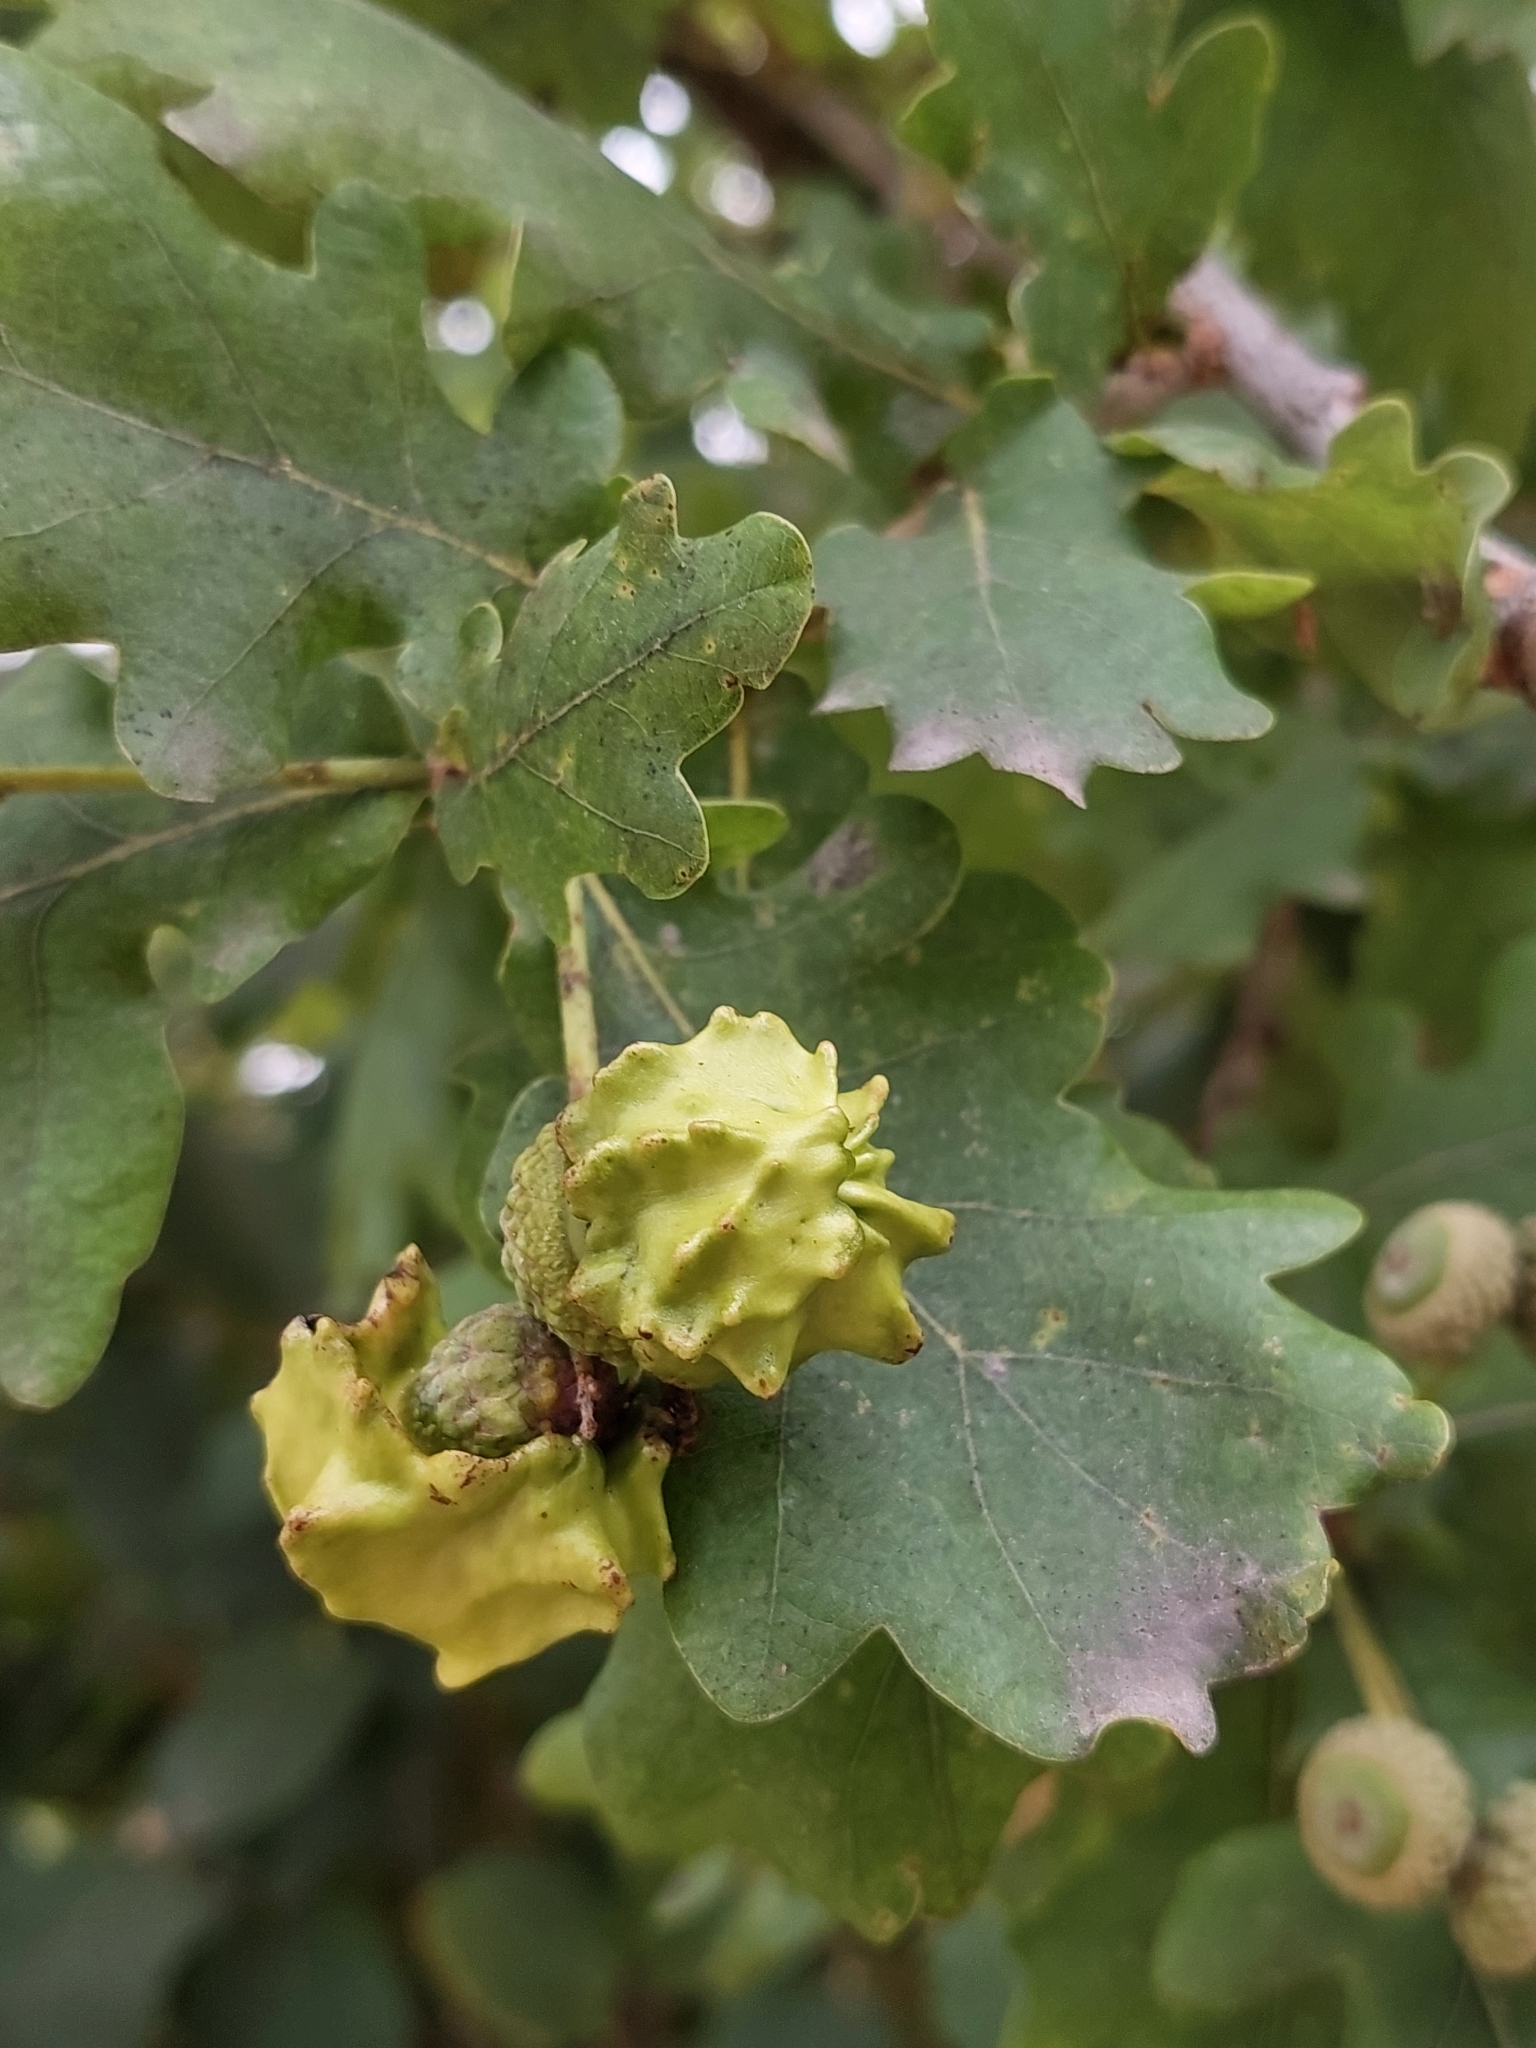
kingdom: Animalia
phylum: Arthropoda
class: Insecta
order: Hymenoptera
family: Cynipidae
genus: Andricus
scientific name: Andricus quercuscalicis
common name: Knopper gall
